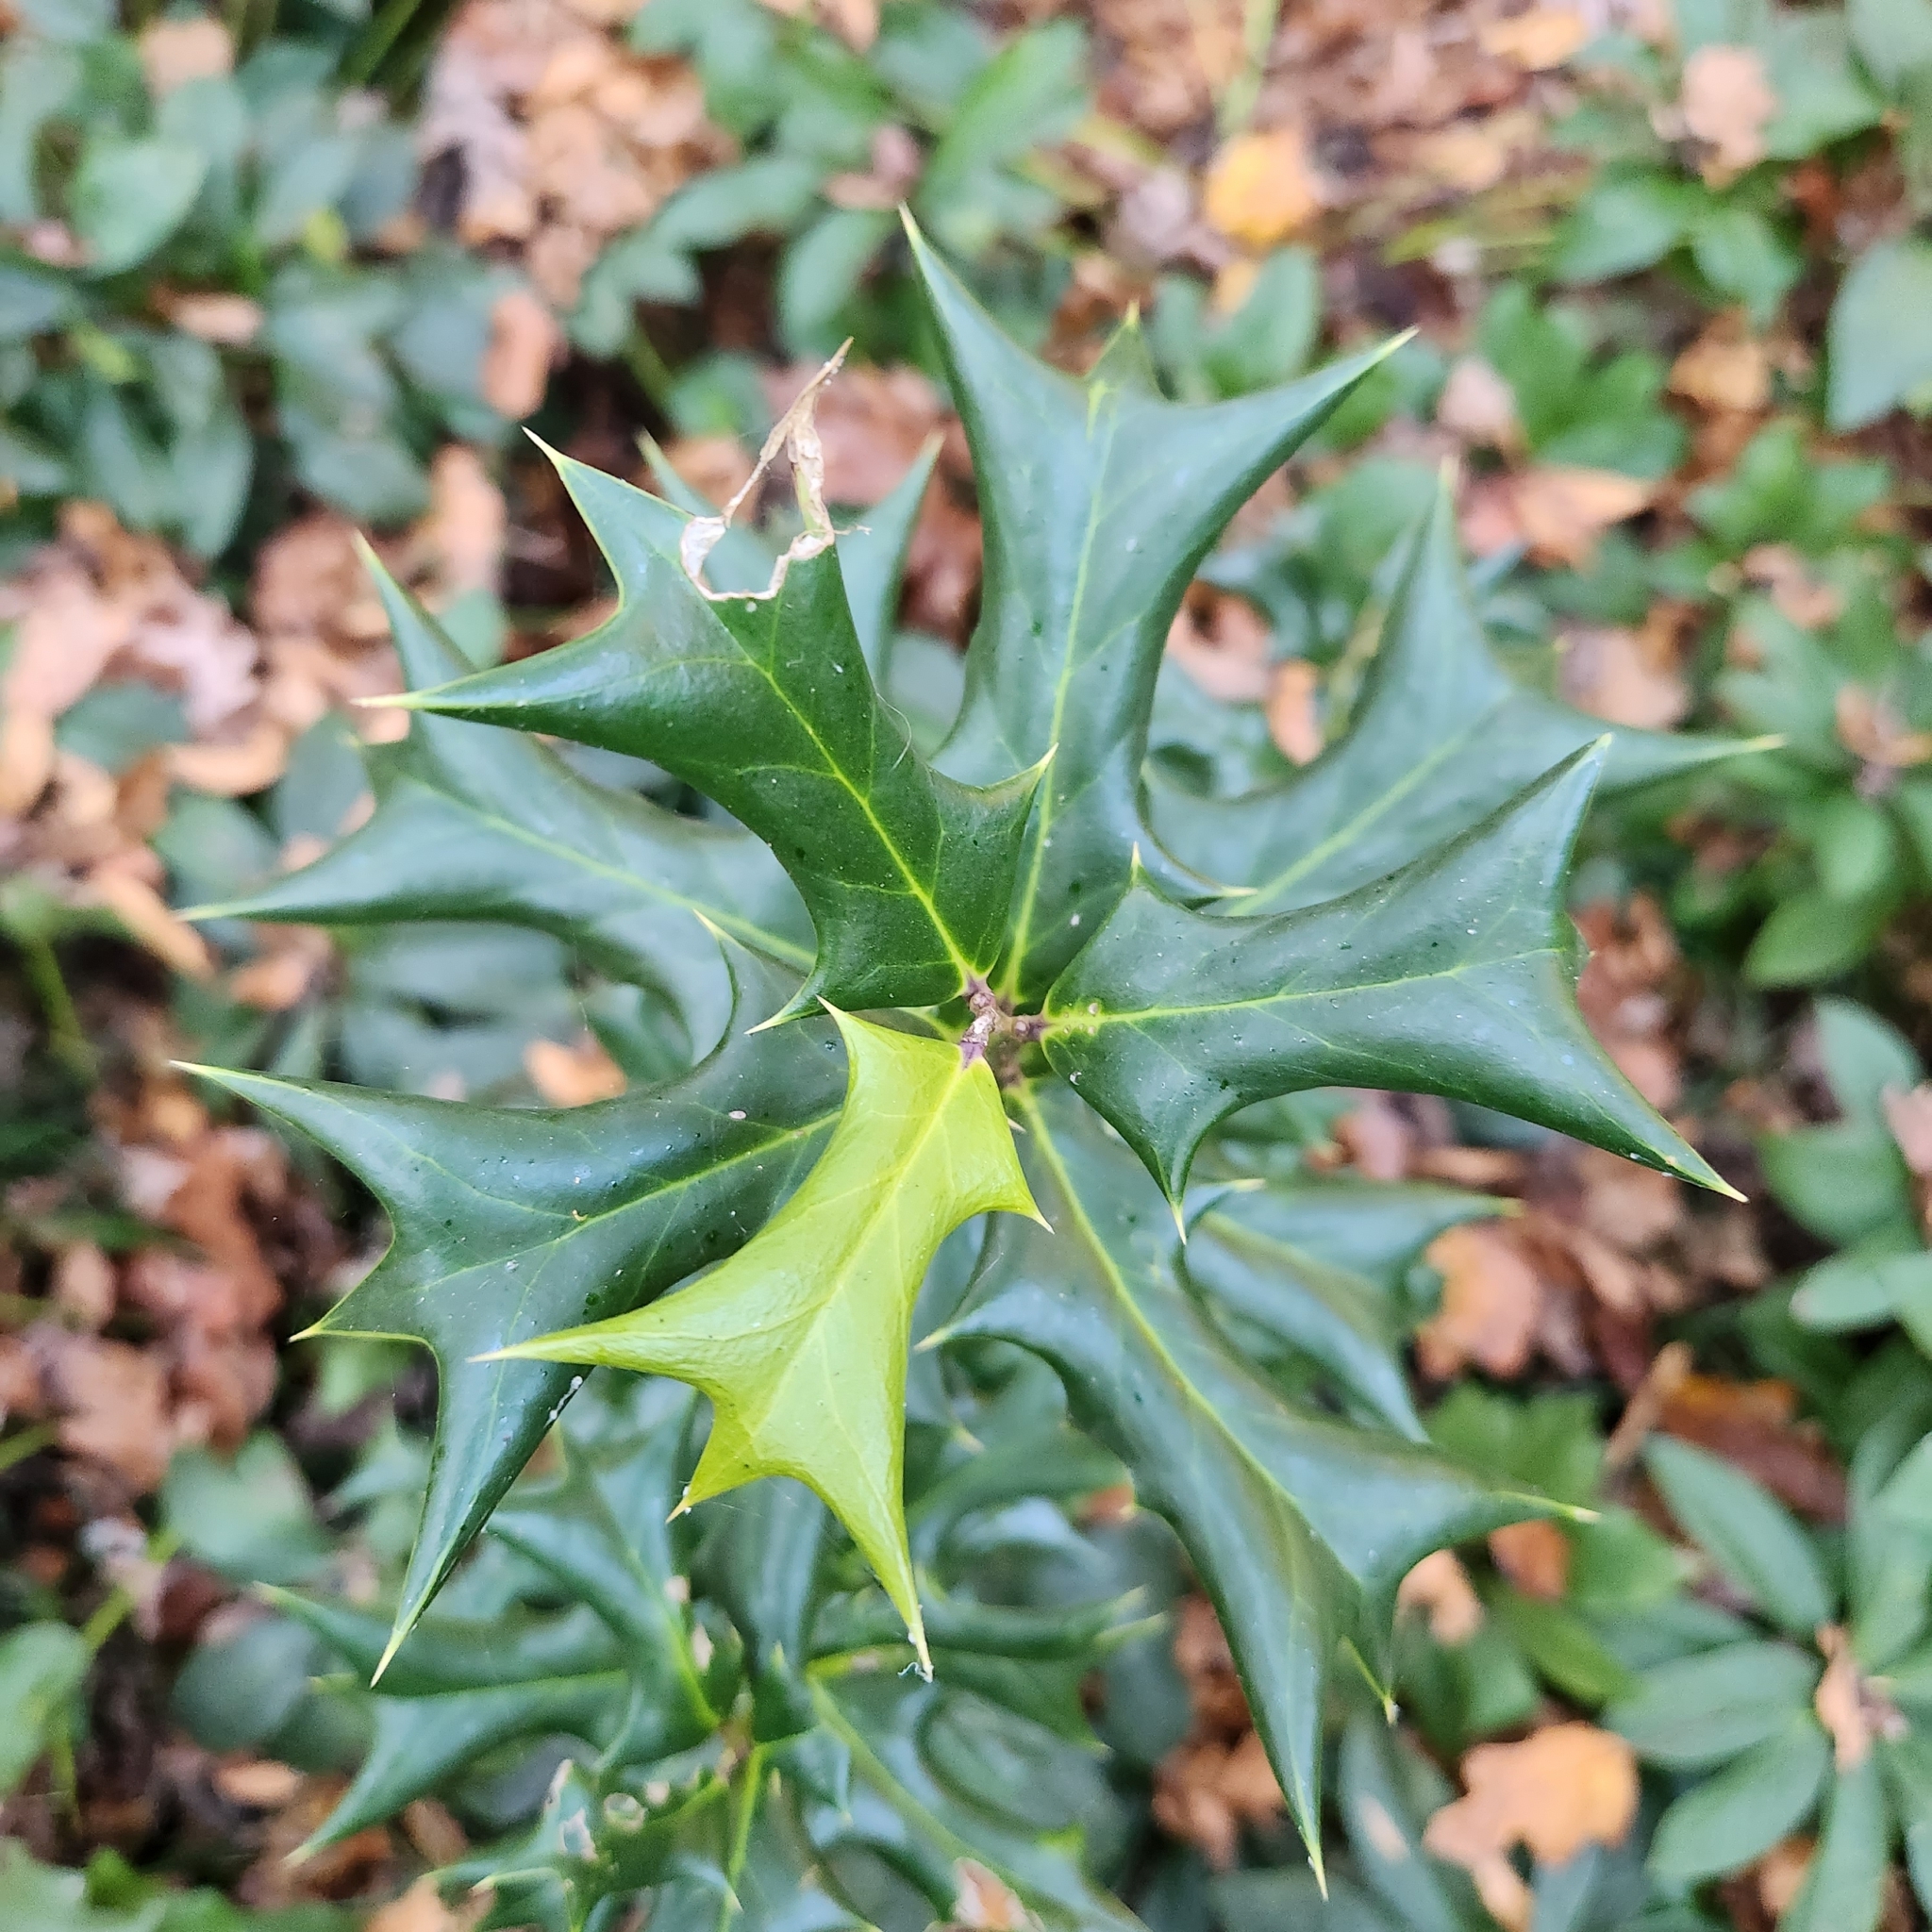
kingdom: Plantae
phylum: Tracheophyta
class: Magnoliopsida
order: Aquifoliales
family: Aquifoliaceae
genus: Ilex
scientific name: Ilex cornuta
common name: Chinese holly
